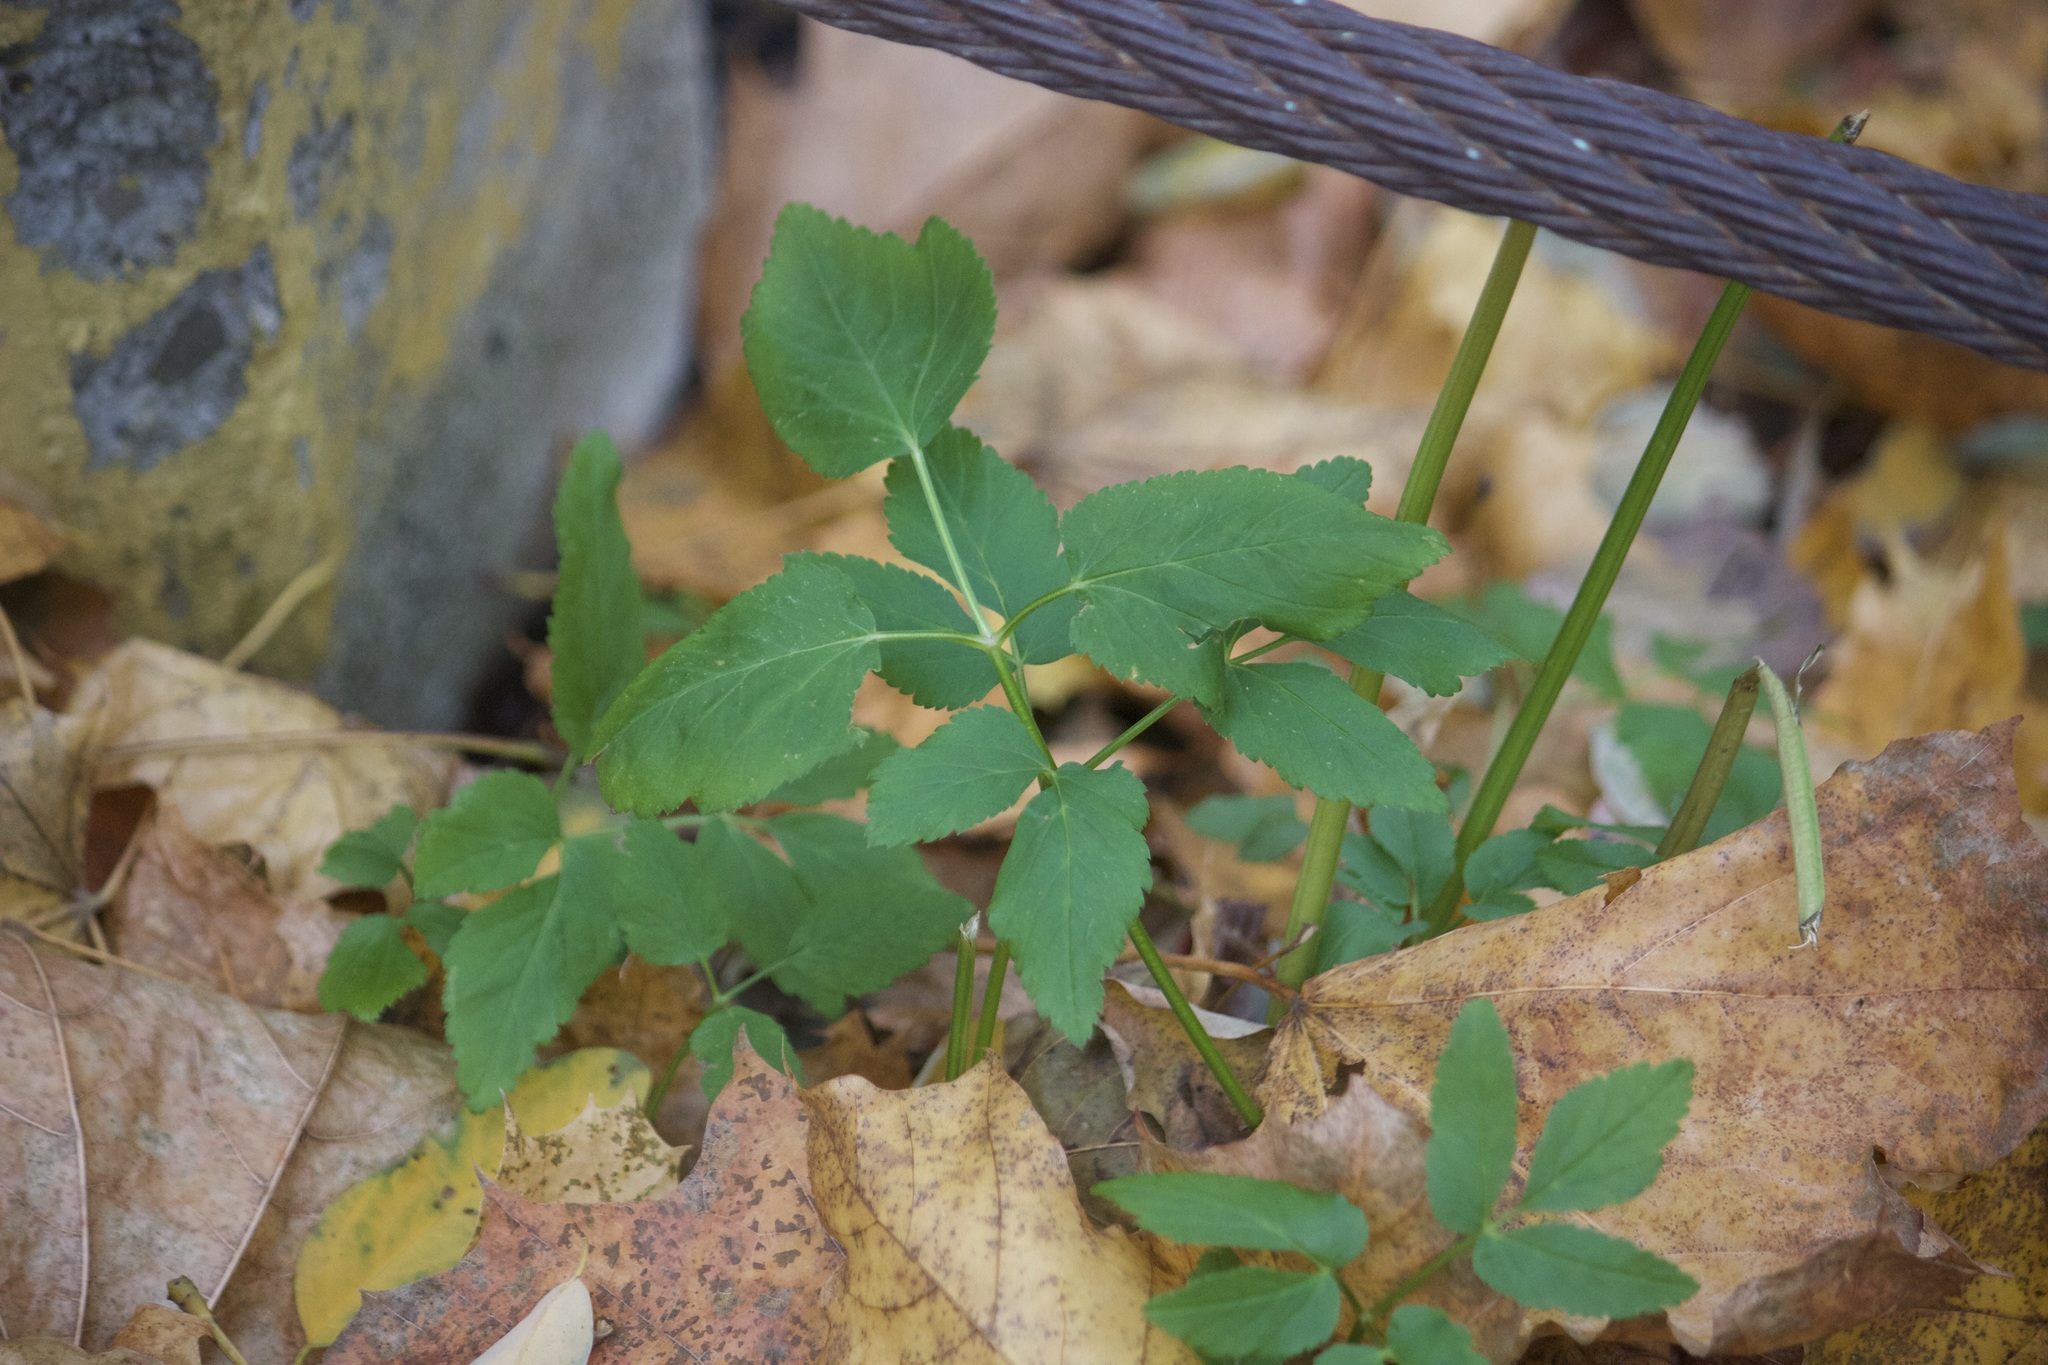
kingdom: Plantae
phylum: Tracheophyta
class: Magnoliopsida
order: Apiales
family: Apiaceae
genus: Aegopodium
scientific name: Aegopodium podagraria
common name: Ground-elder
